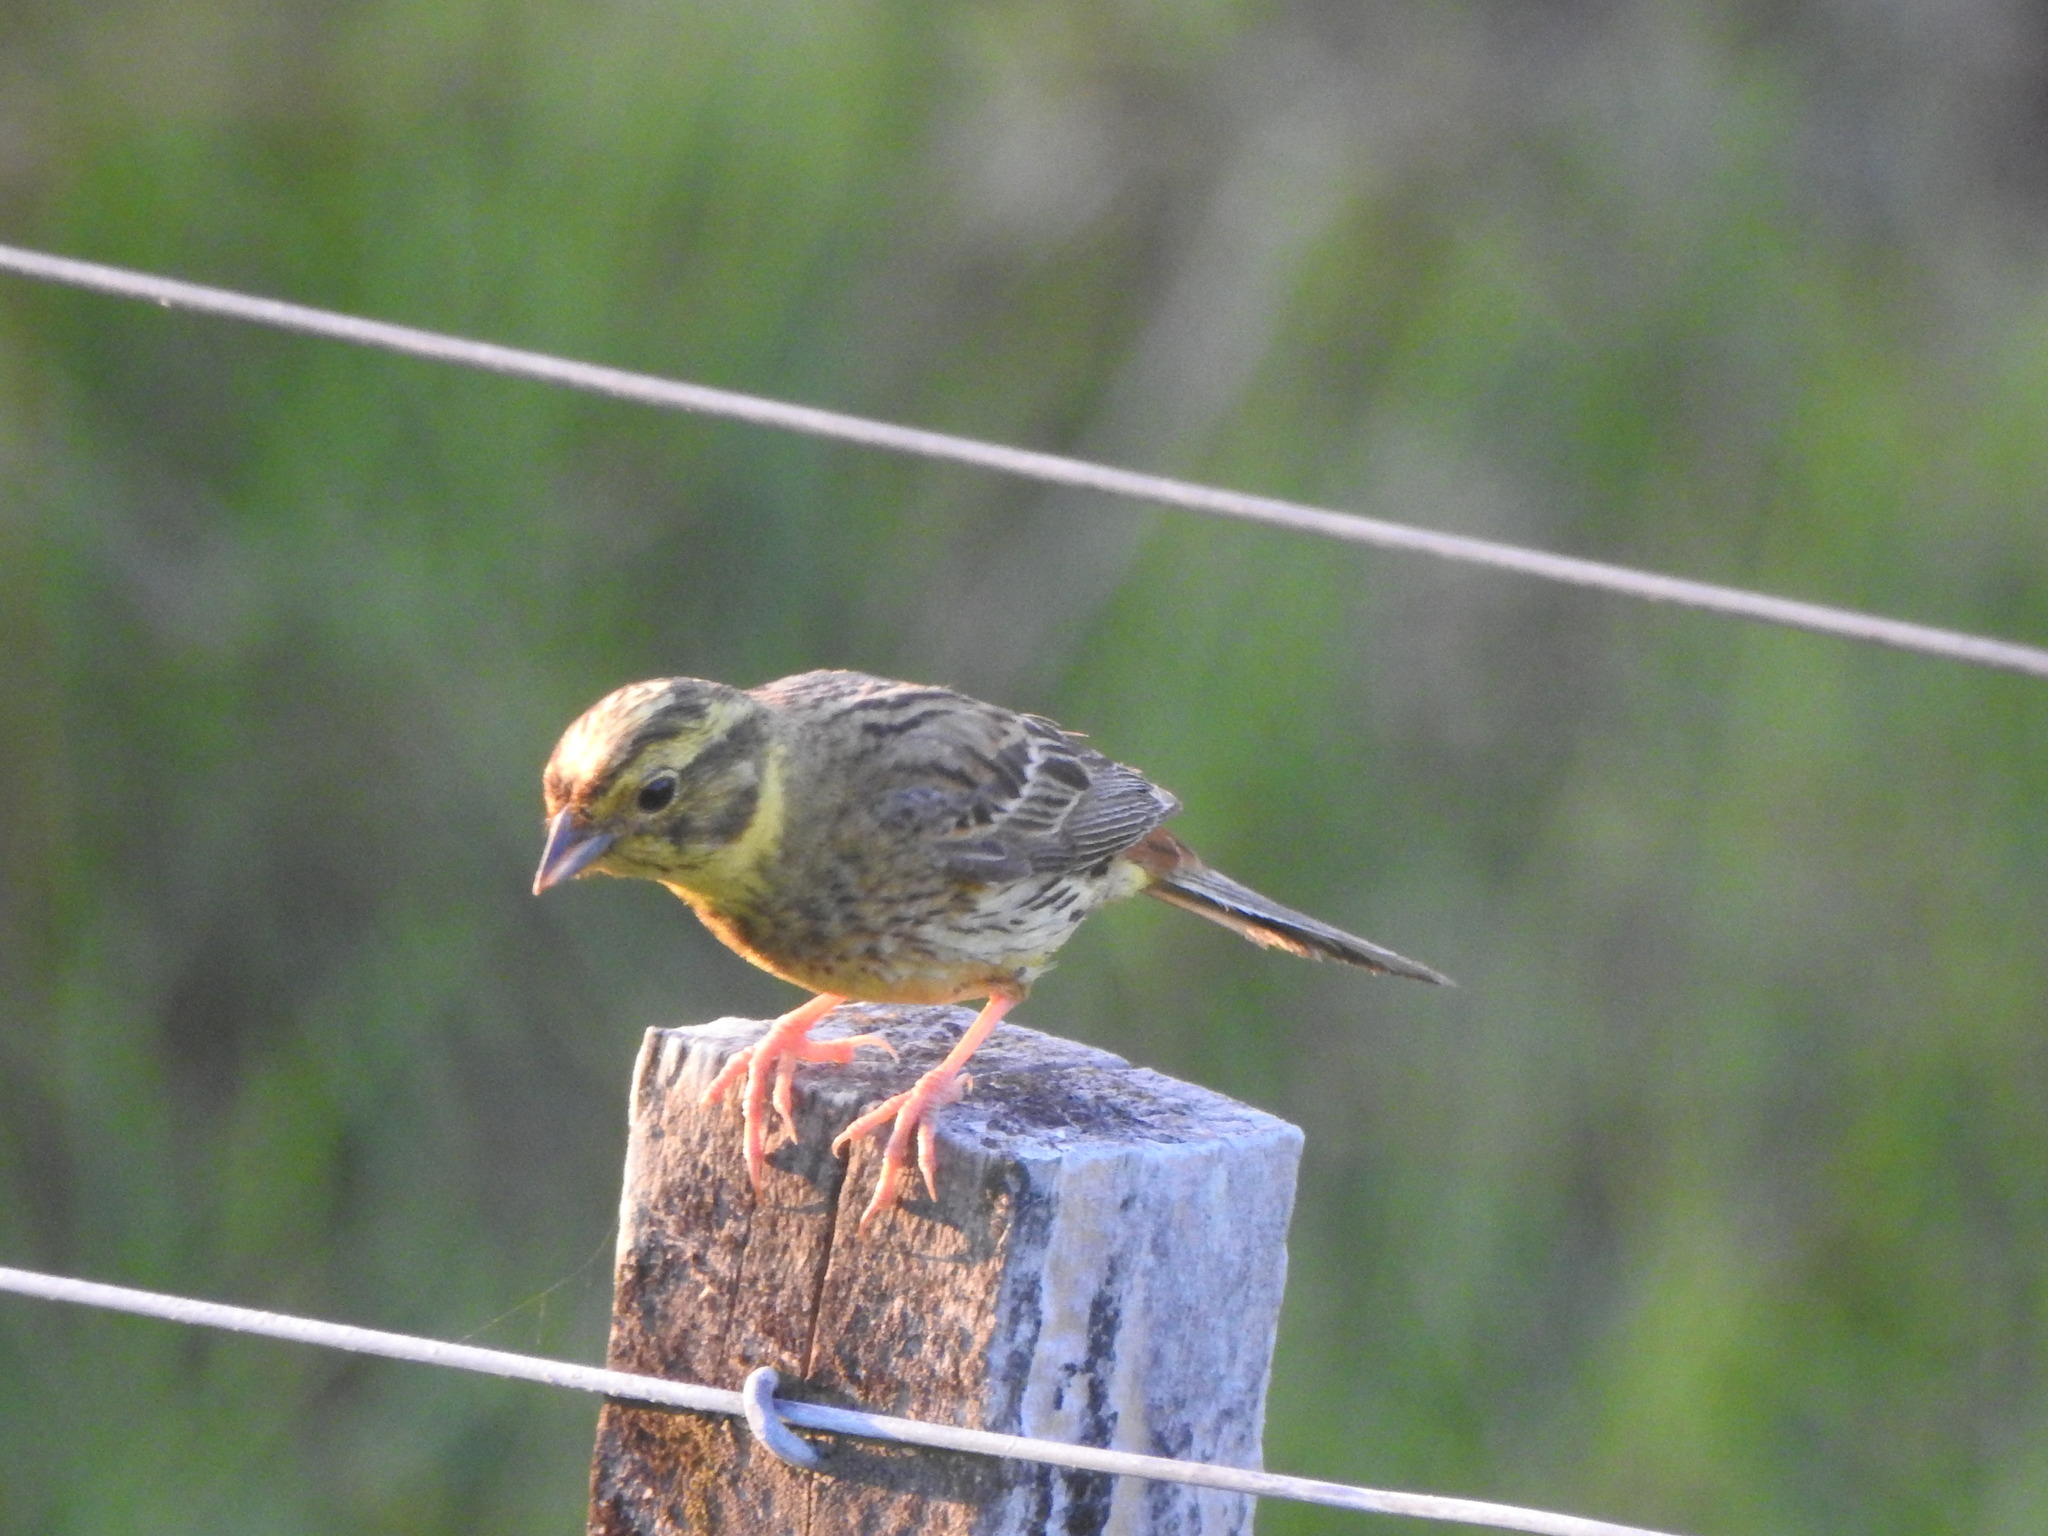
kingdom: Animalia
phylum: Chordata
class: Aves
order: Passeriformes
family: Emberizidae
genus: Emberiza
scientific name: Emberiza citrinella
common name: Yellowhammer
